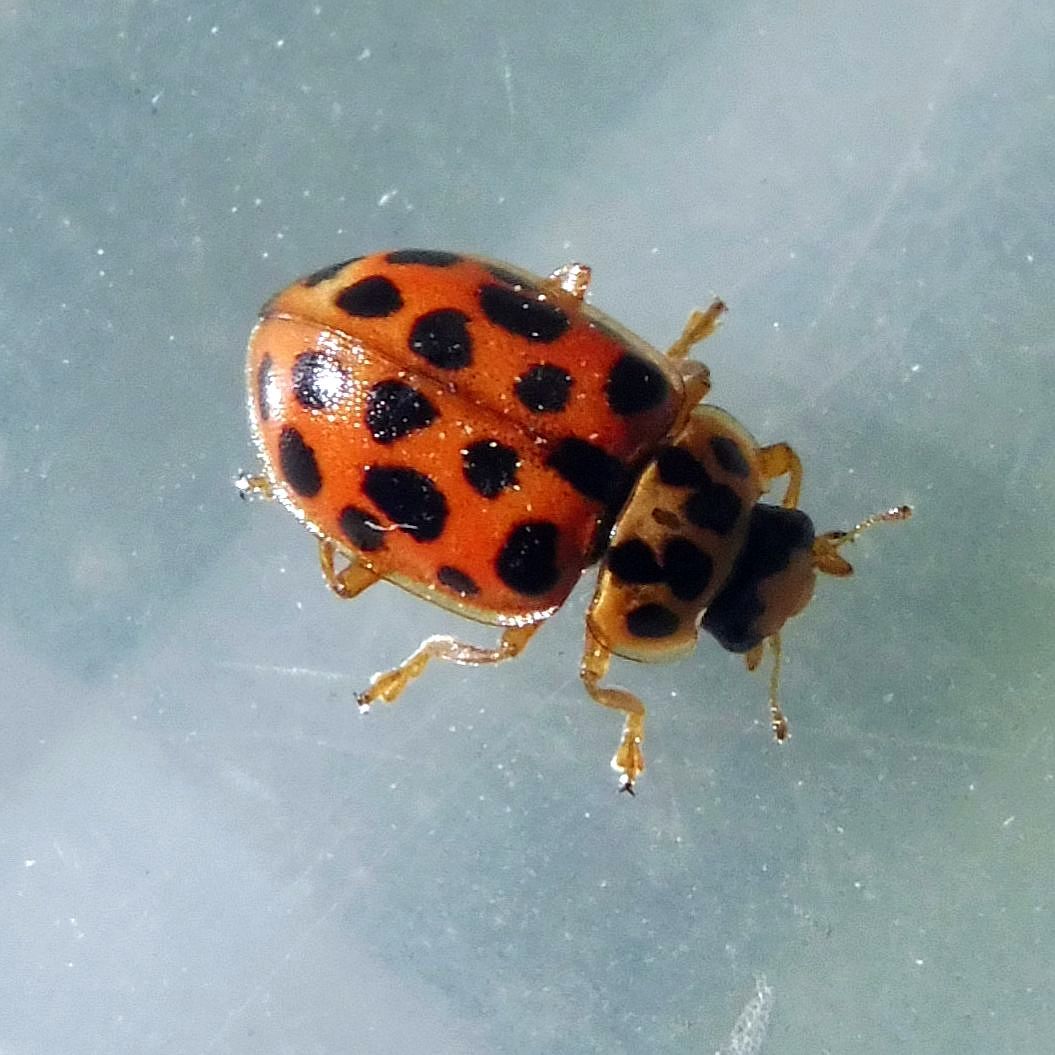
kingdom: Animalia
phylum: Arthropoda
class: Insecta
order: Coleoptera
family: Coccinellidae
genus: Anisosticta
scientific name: Anisosticta novemdecimpunctata
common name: Water ladybird
